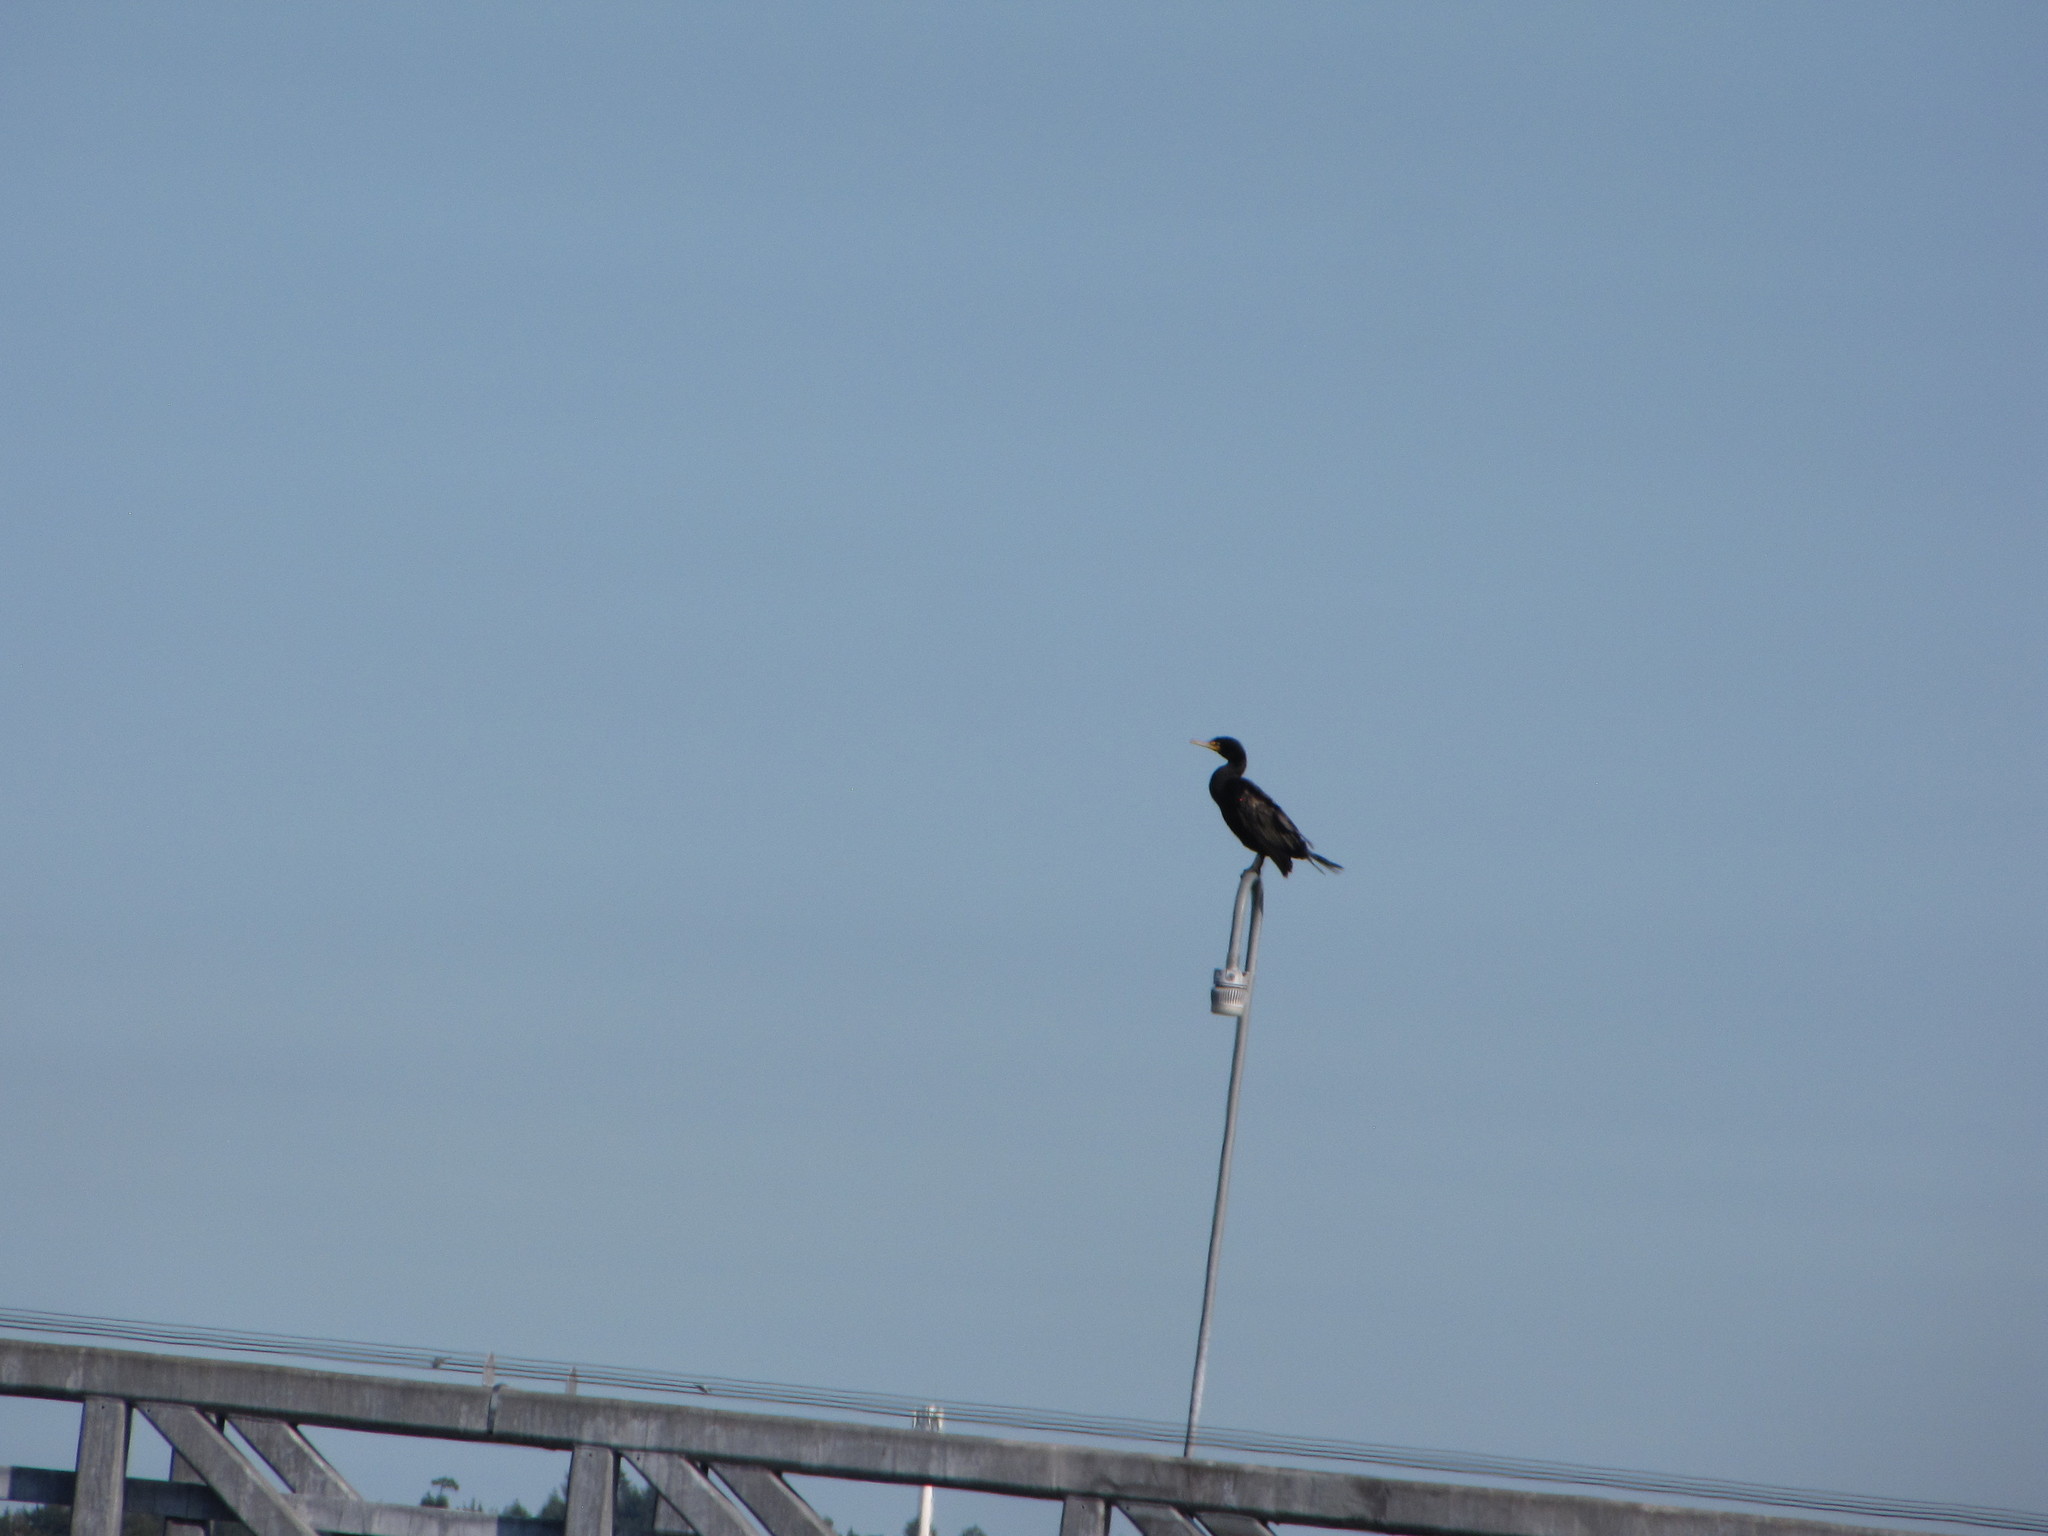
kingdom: Animalia
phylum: Chordata
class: Aves
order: Suliformes
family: Phalacrocoracidae
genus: Phalacrocorax
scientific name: Phalacrocorax auritus
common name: Double-crested cormorant
